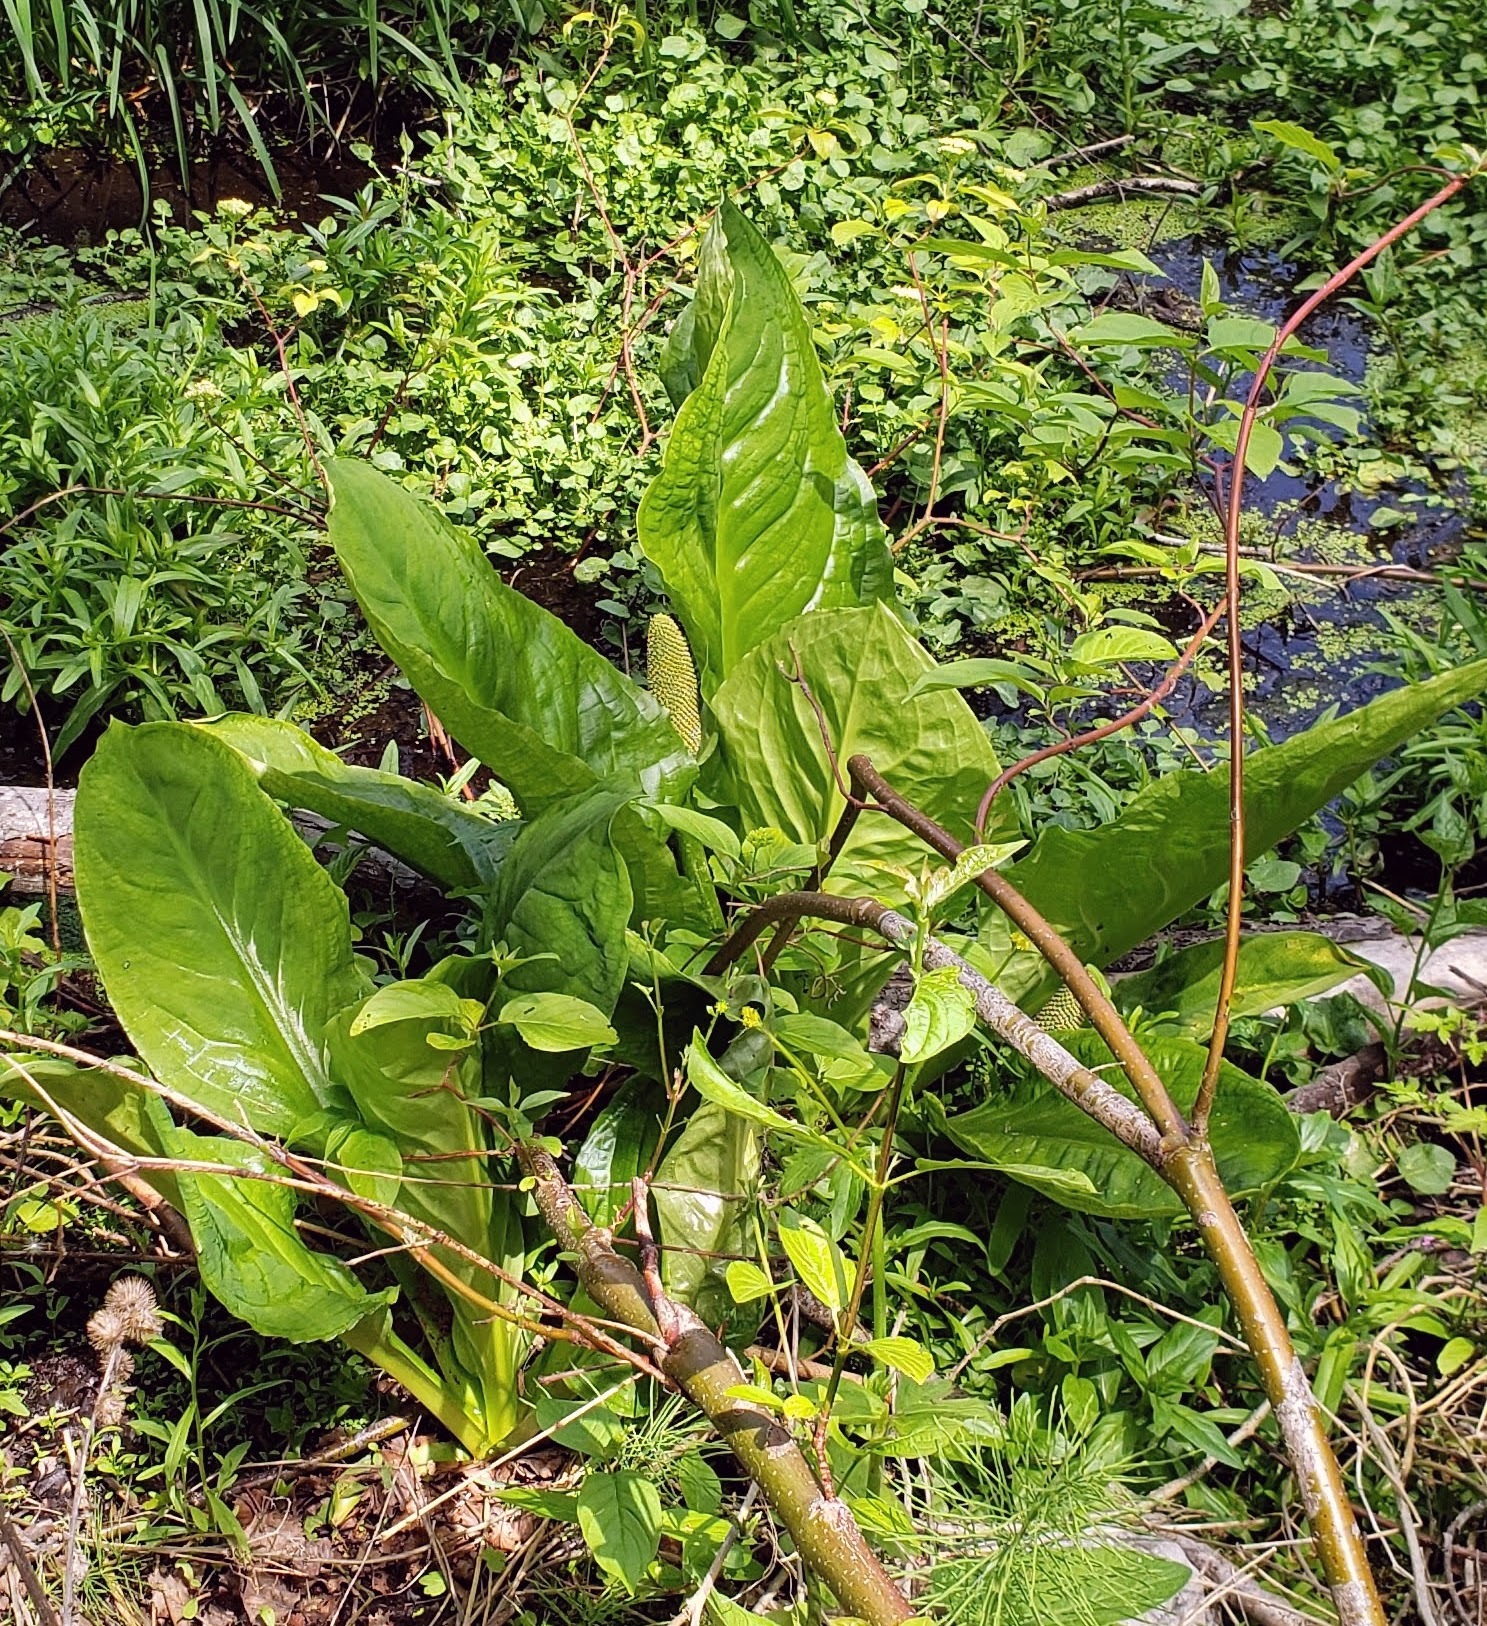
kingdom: Plantae
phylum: Tracheophyta
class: Liliopsida
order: Alismatales
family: Araceae
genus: Lysichiton
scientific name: Lysichiton americanus
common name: American skunk cabbage
